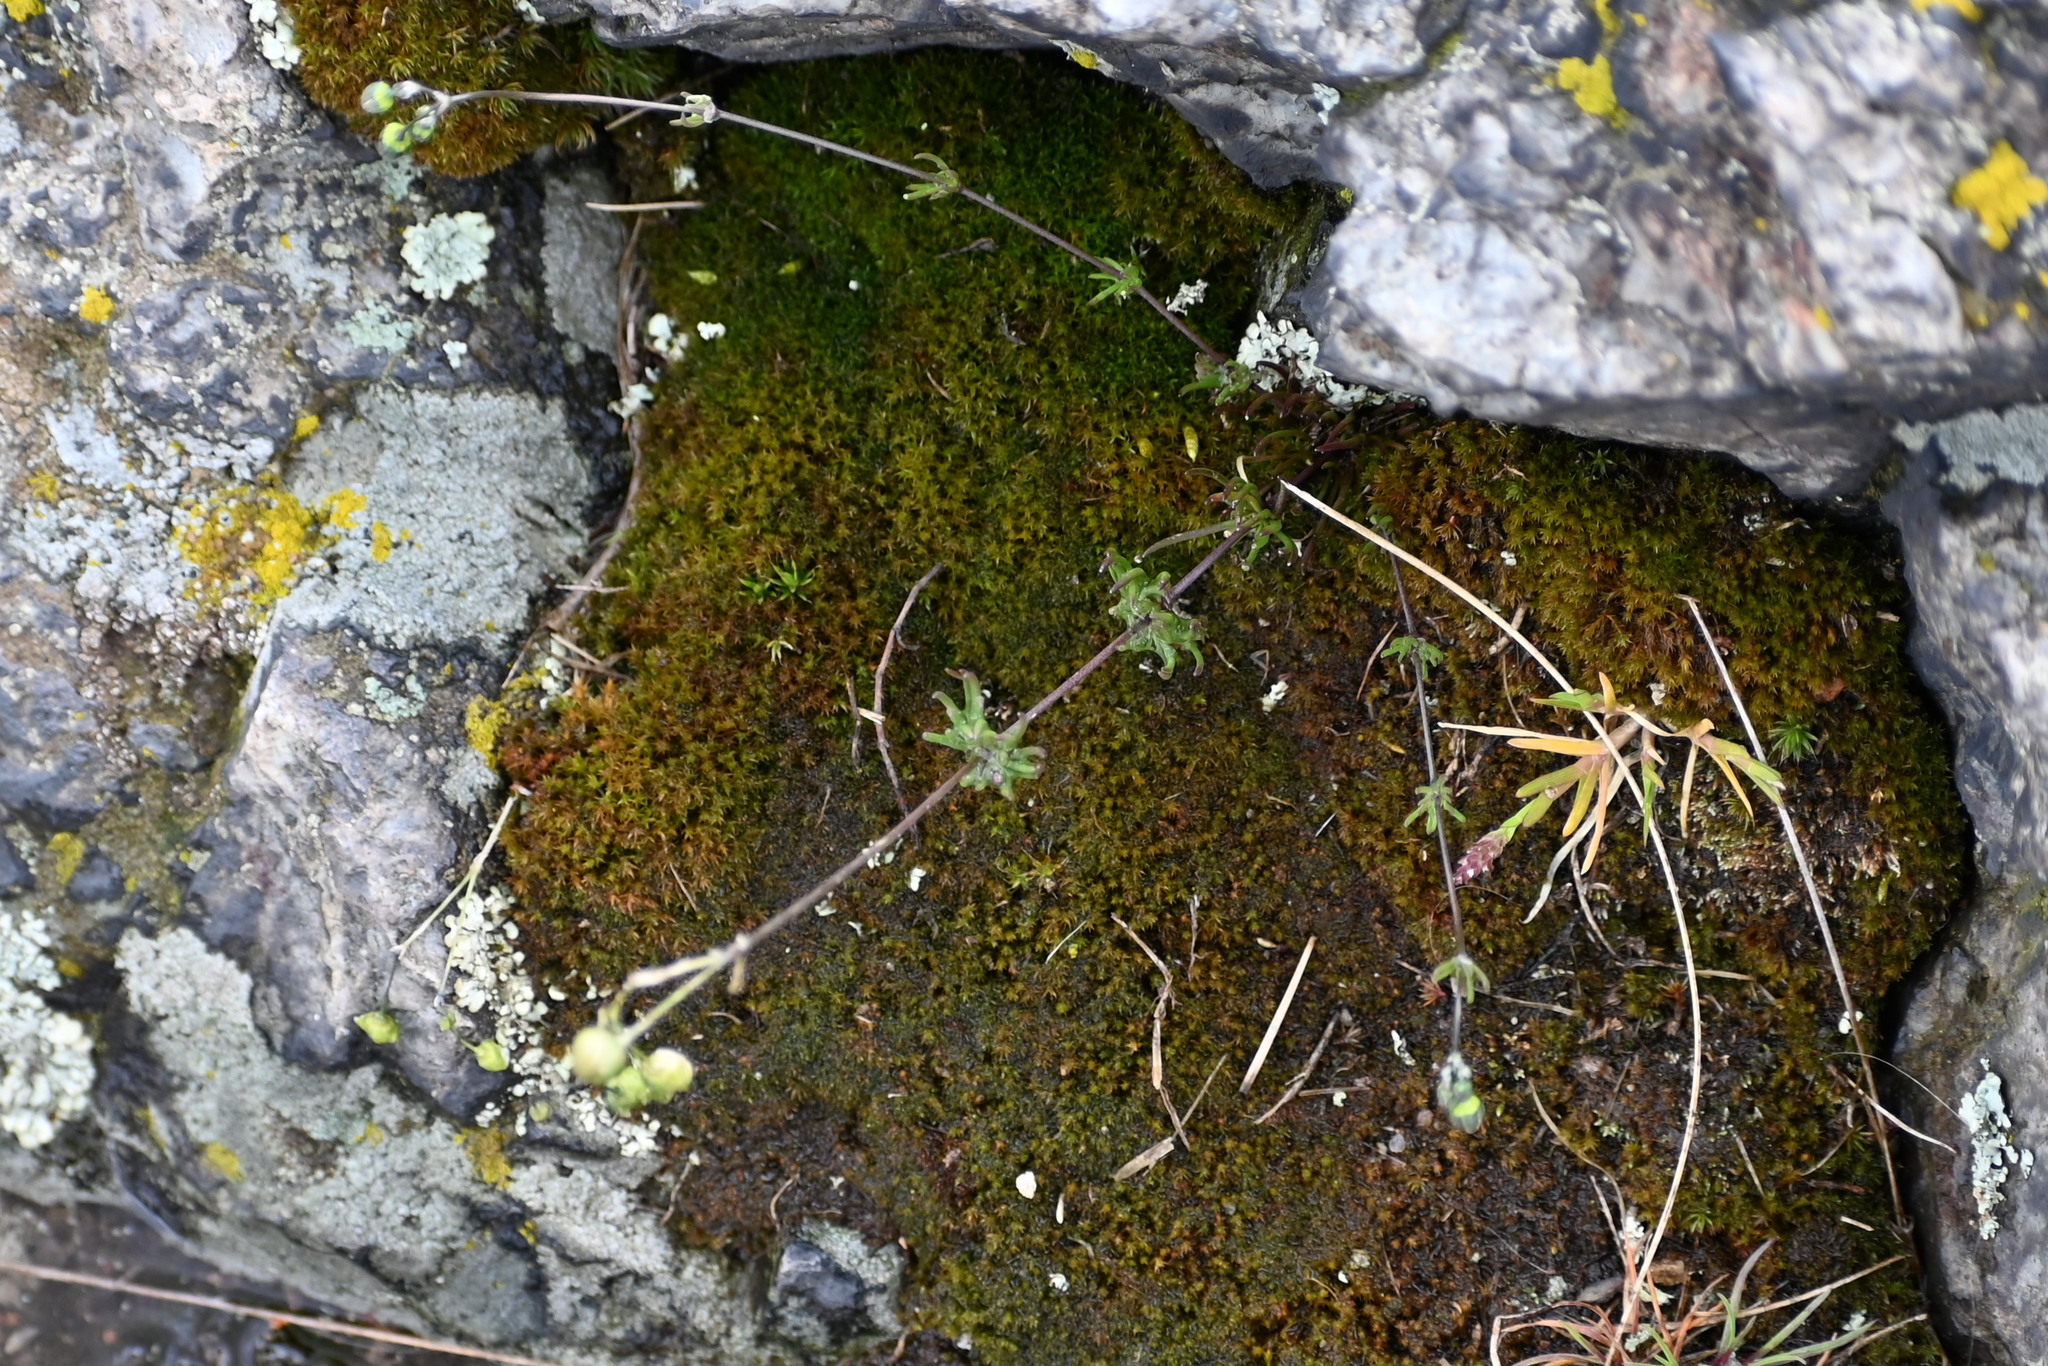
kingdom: Plantae
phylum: Tracheophyta
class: Magnoliopsida
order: Caryophyllales
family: Caryophyllaceae
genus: Spergula
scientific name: Spergula morisonii
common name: Pearlwort spurrey
